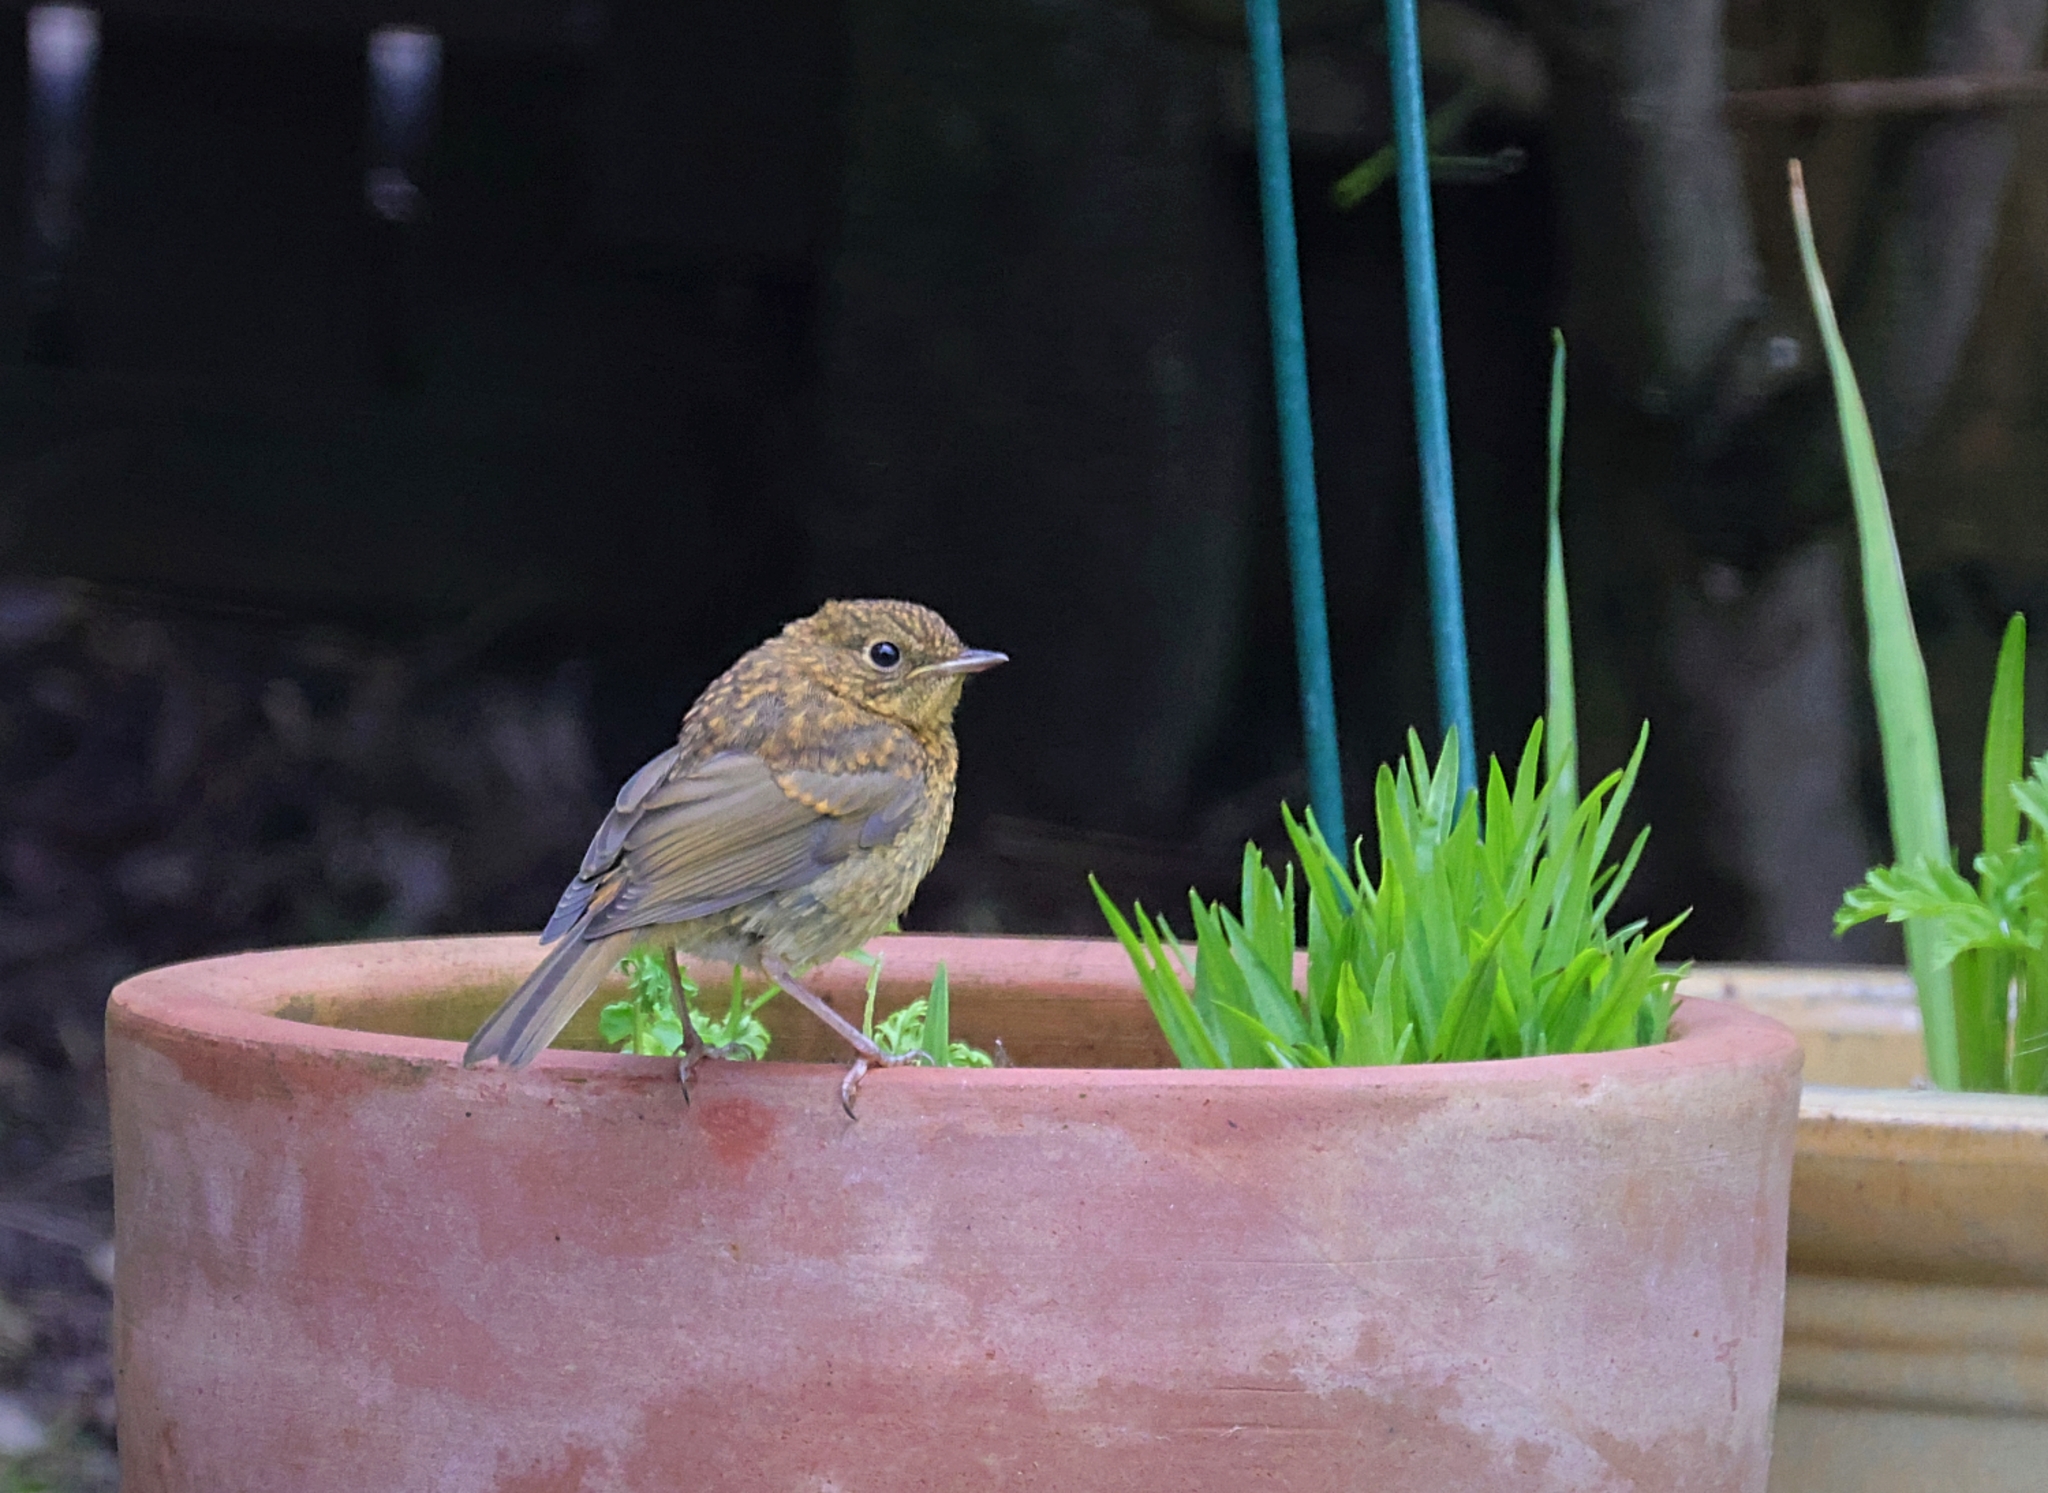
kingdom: Animalia
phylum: Chordata
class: Aves
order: Passeriformes
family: Muscicapidae
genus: Erithacus
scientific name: Erithacus rubecula
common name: European robin
